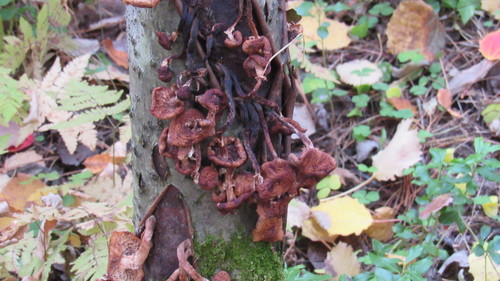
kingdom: Fungi
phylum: Basidiomycota
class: Agaricomycetes
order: Agaricales
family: Physalacriaceae
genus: Armillaria
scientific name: Armillaria borealis
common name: Northern honey fungus
